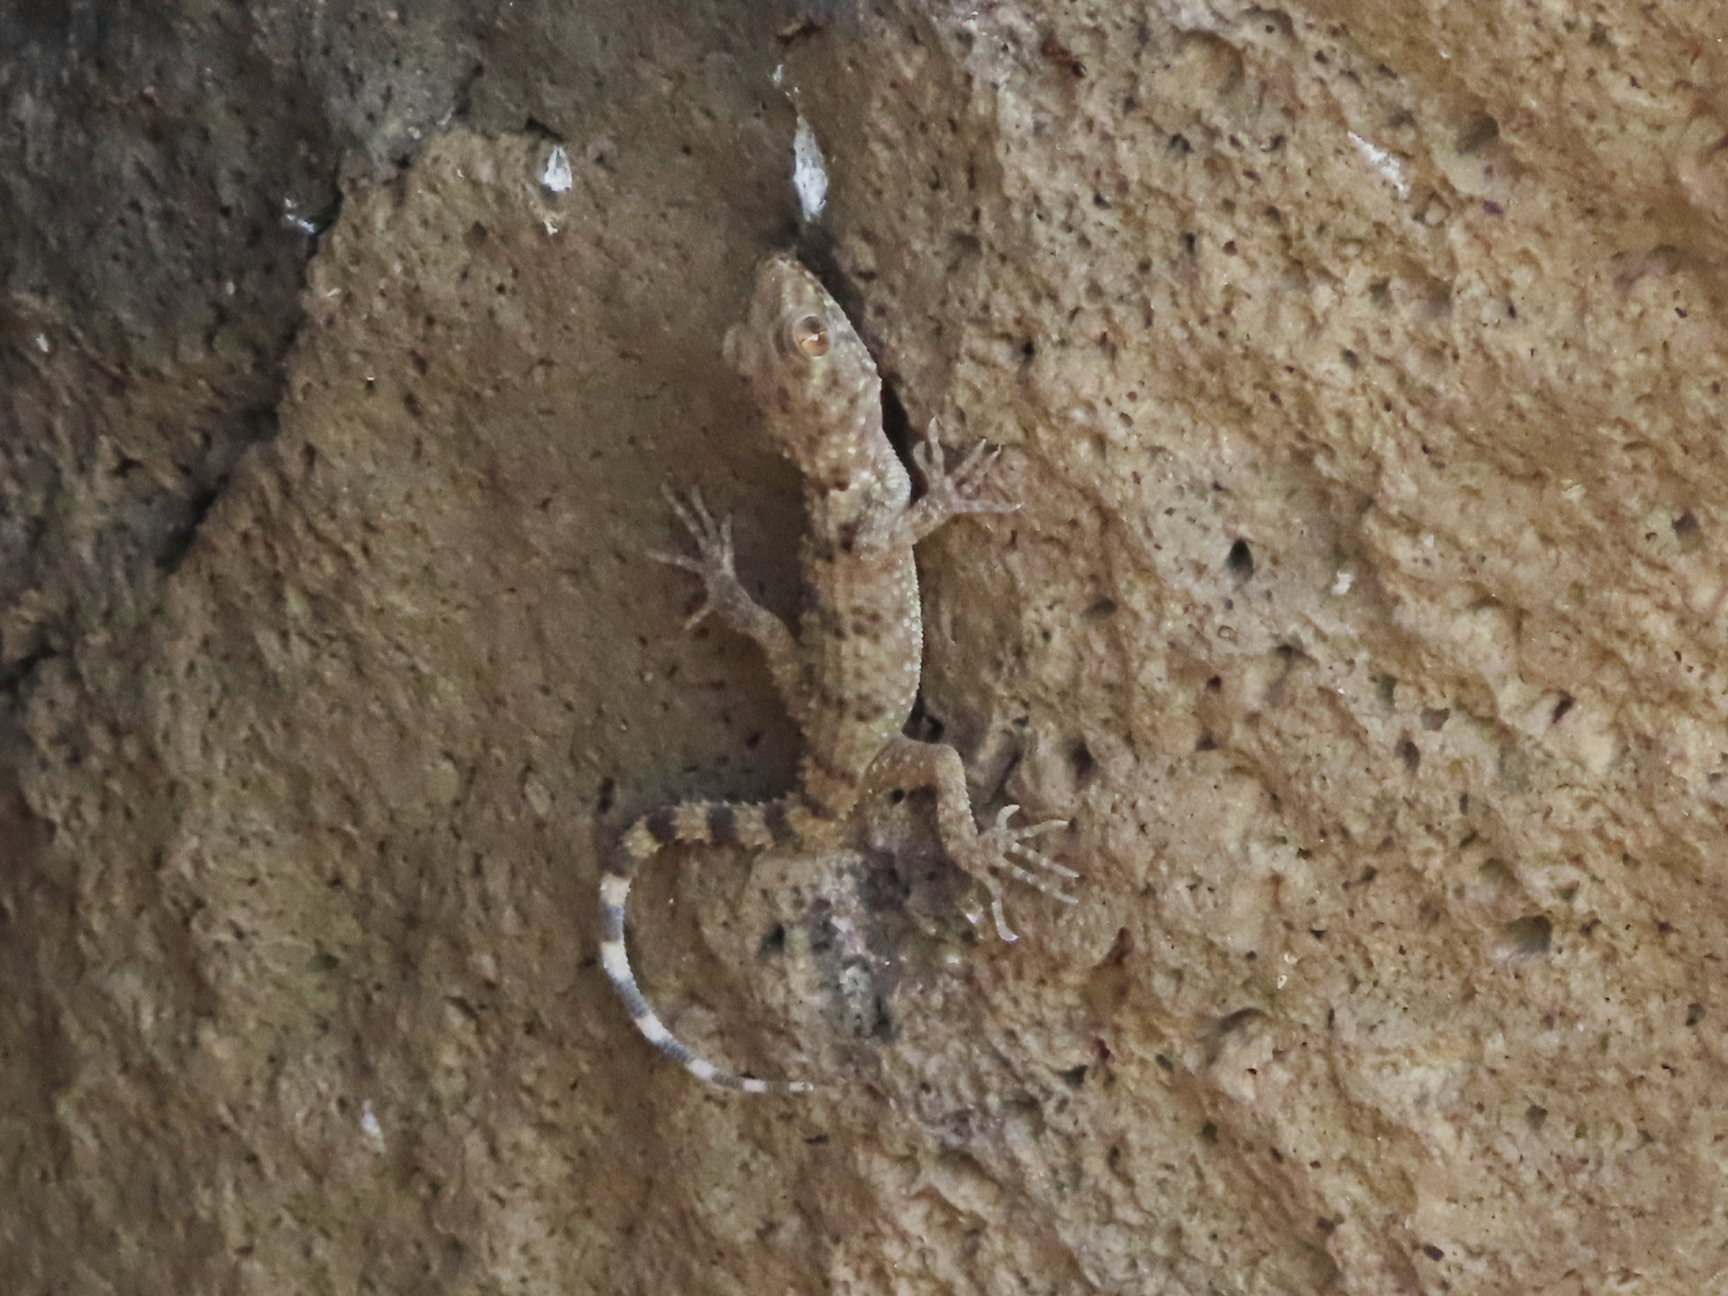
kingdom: Animalia
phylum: Chordata
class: Squamata
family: Gekkonidae
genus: Tenuidactylus
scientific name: Tenuidactylus caspius
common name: Caspian bent-toed gecko
